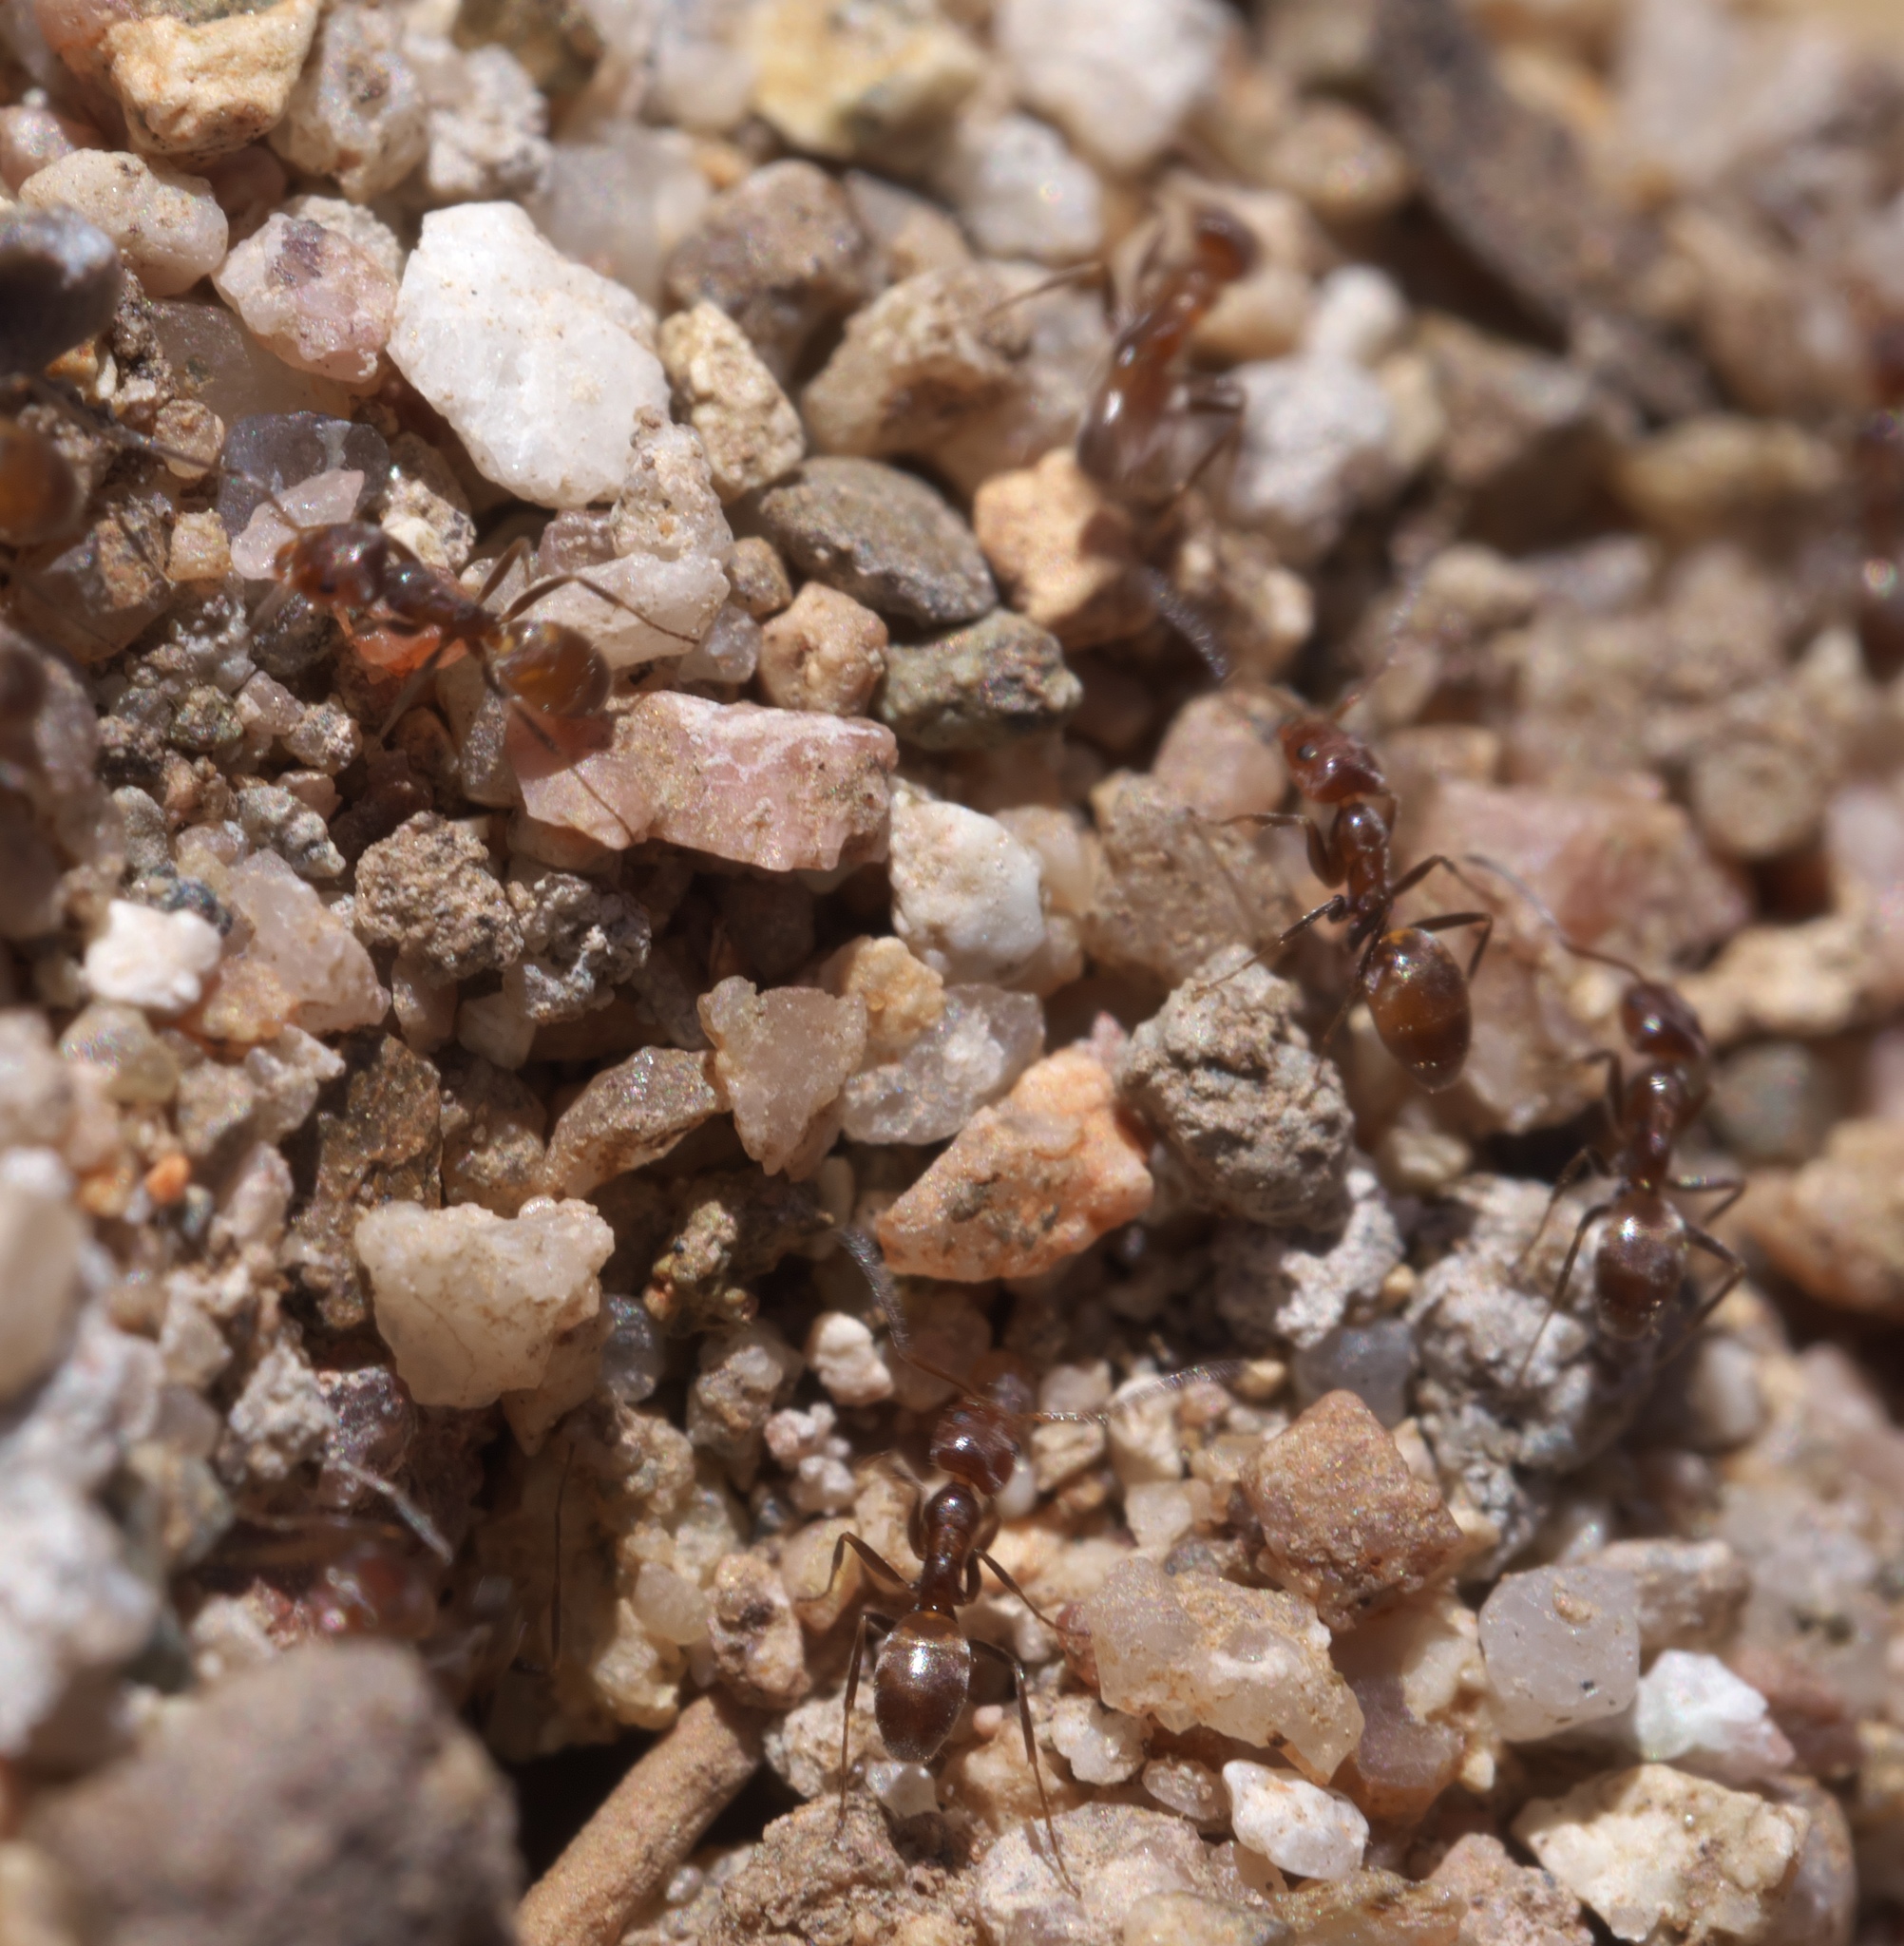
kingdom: Animalia
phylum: Arthropoda
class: Insecta
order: Hymenoptera
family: Formicidae
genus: Forelius
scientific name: Forelius
